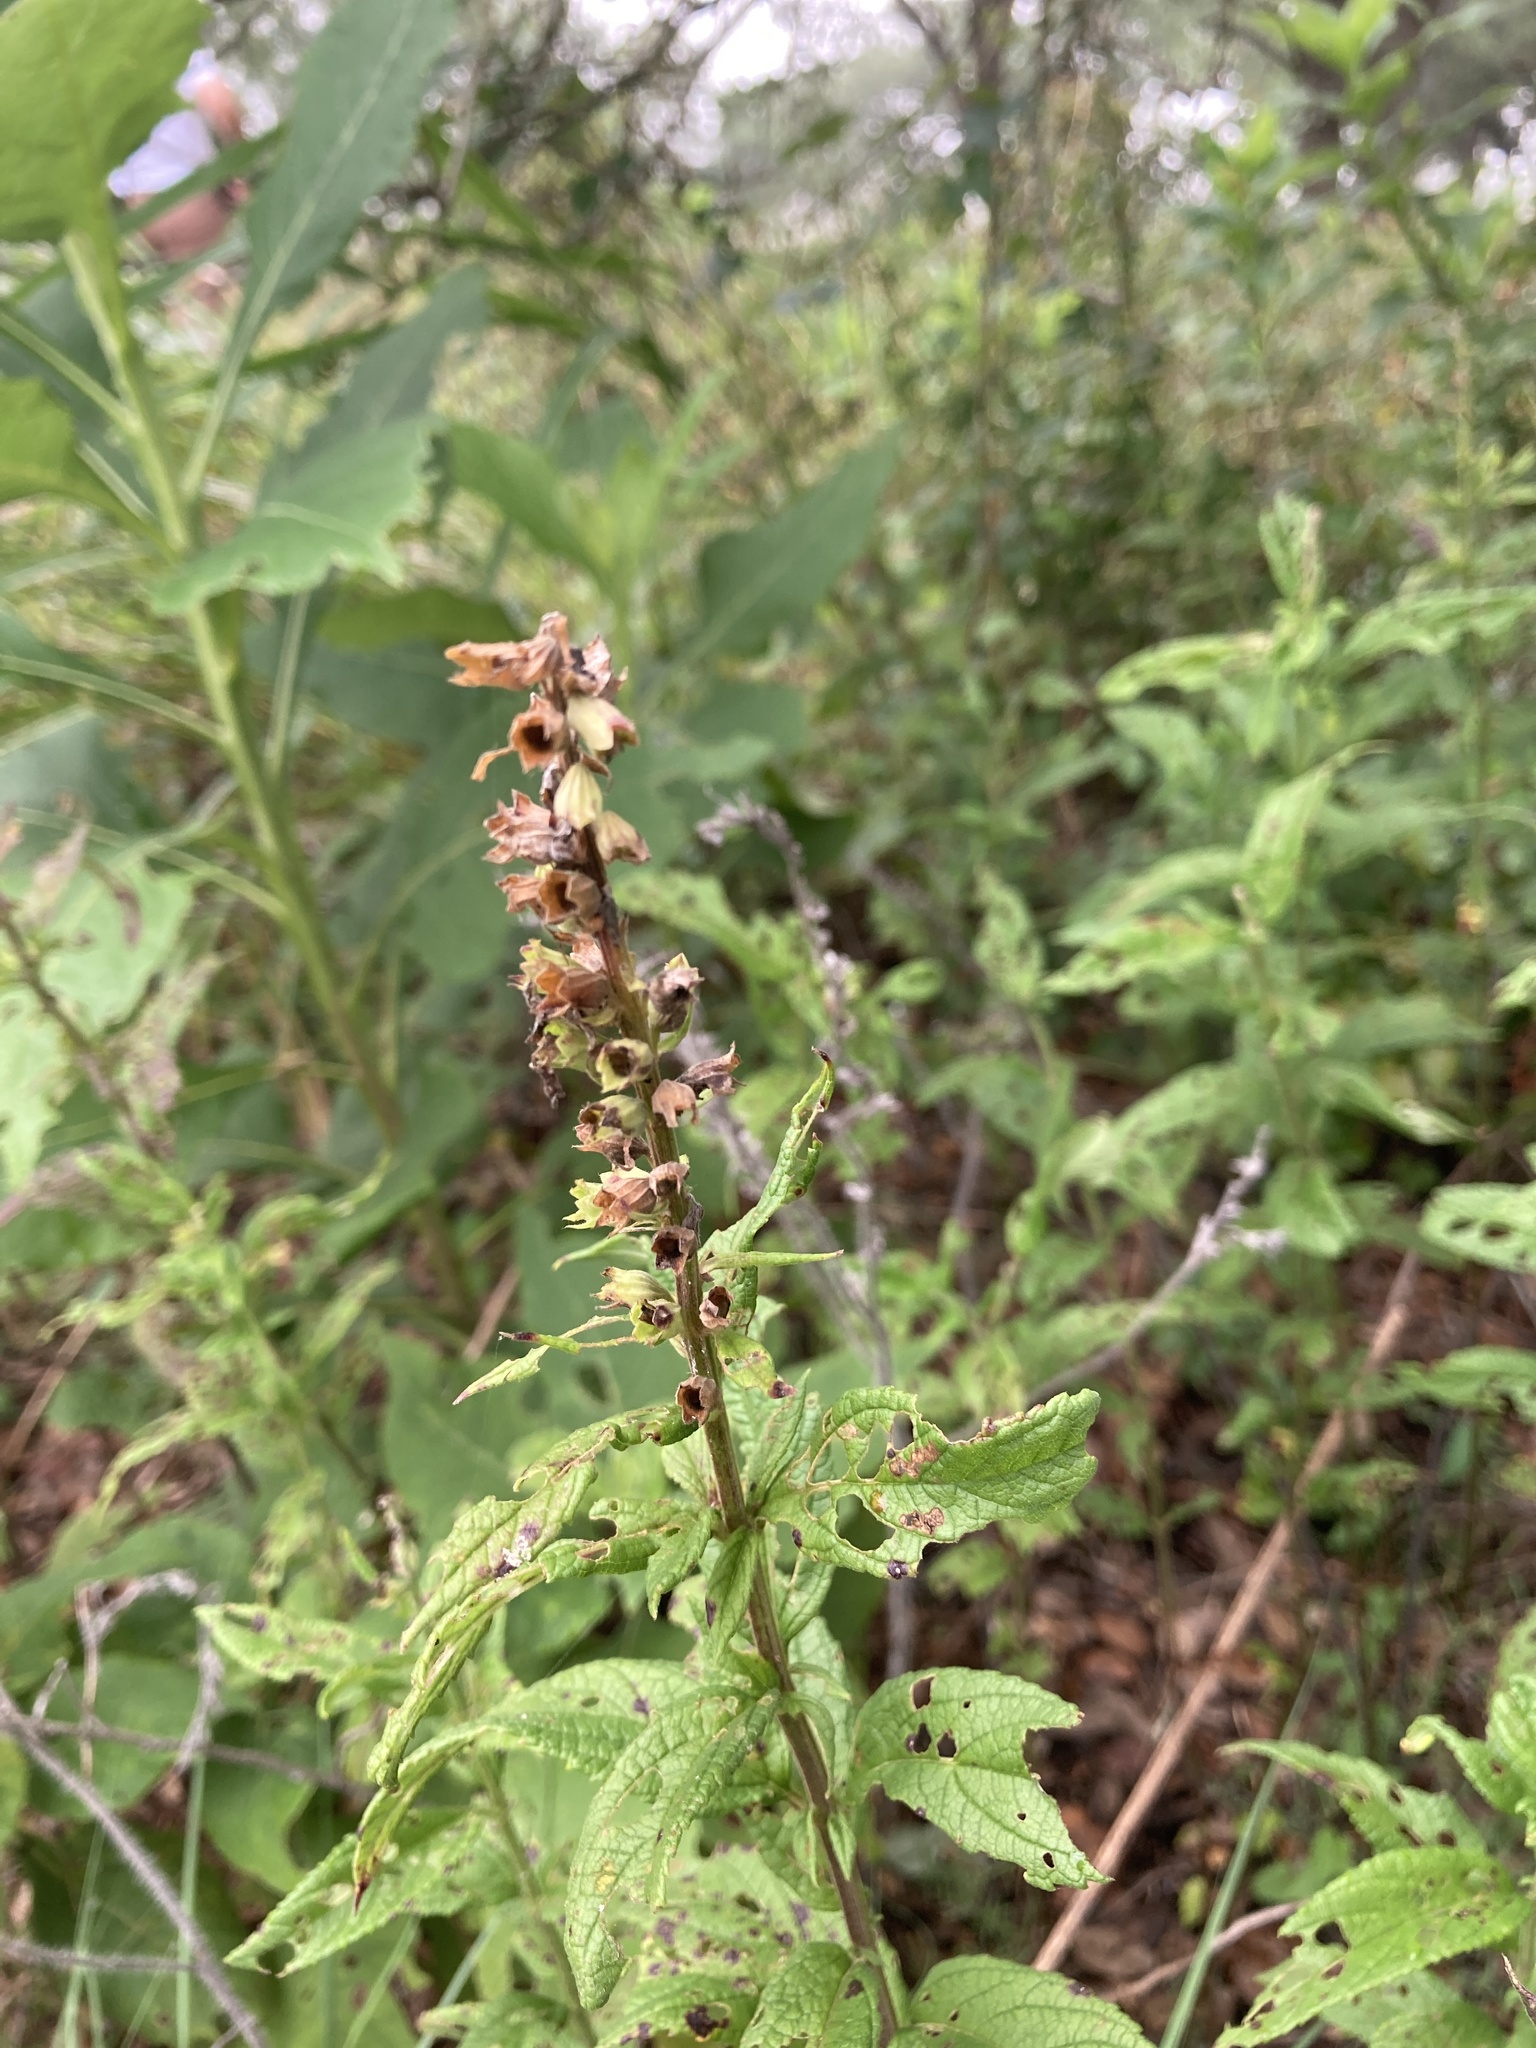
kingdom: Plantae
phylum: Tracheophyta
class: Magnoliopsida
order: Lamiales
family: Lamiaceae
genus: Teucrium
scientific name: Teucrium canadense
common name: American germander
